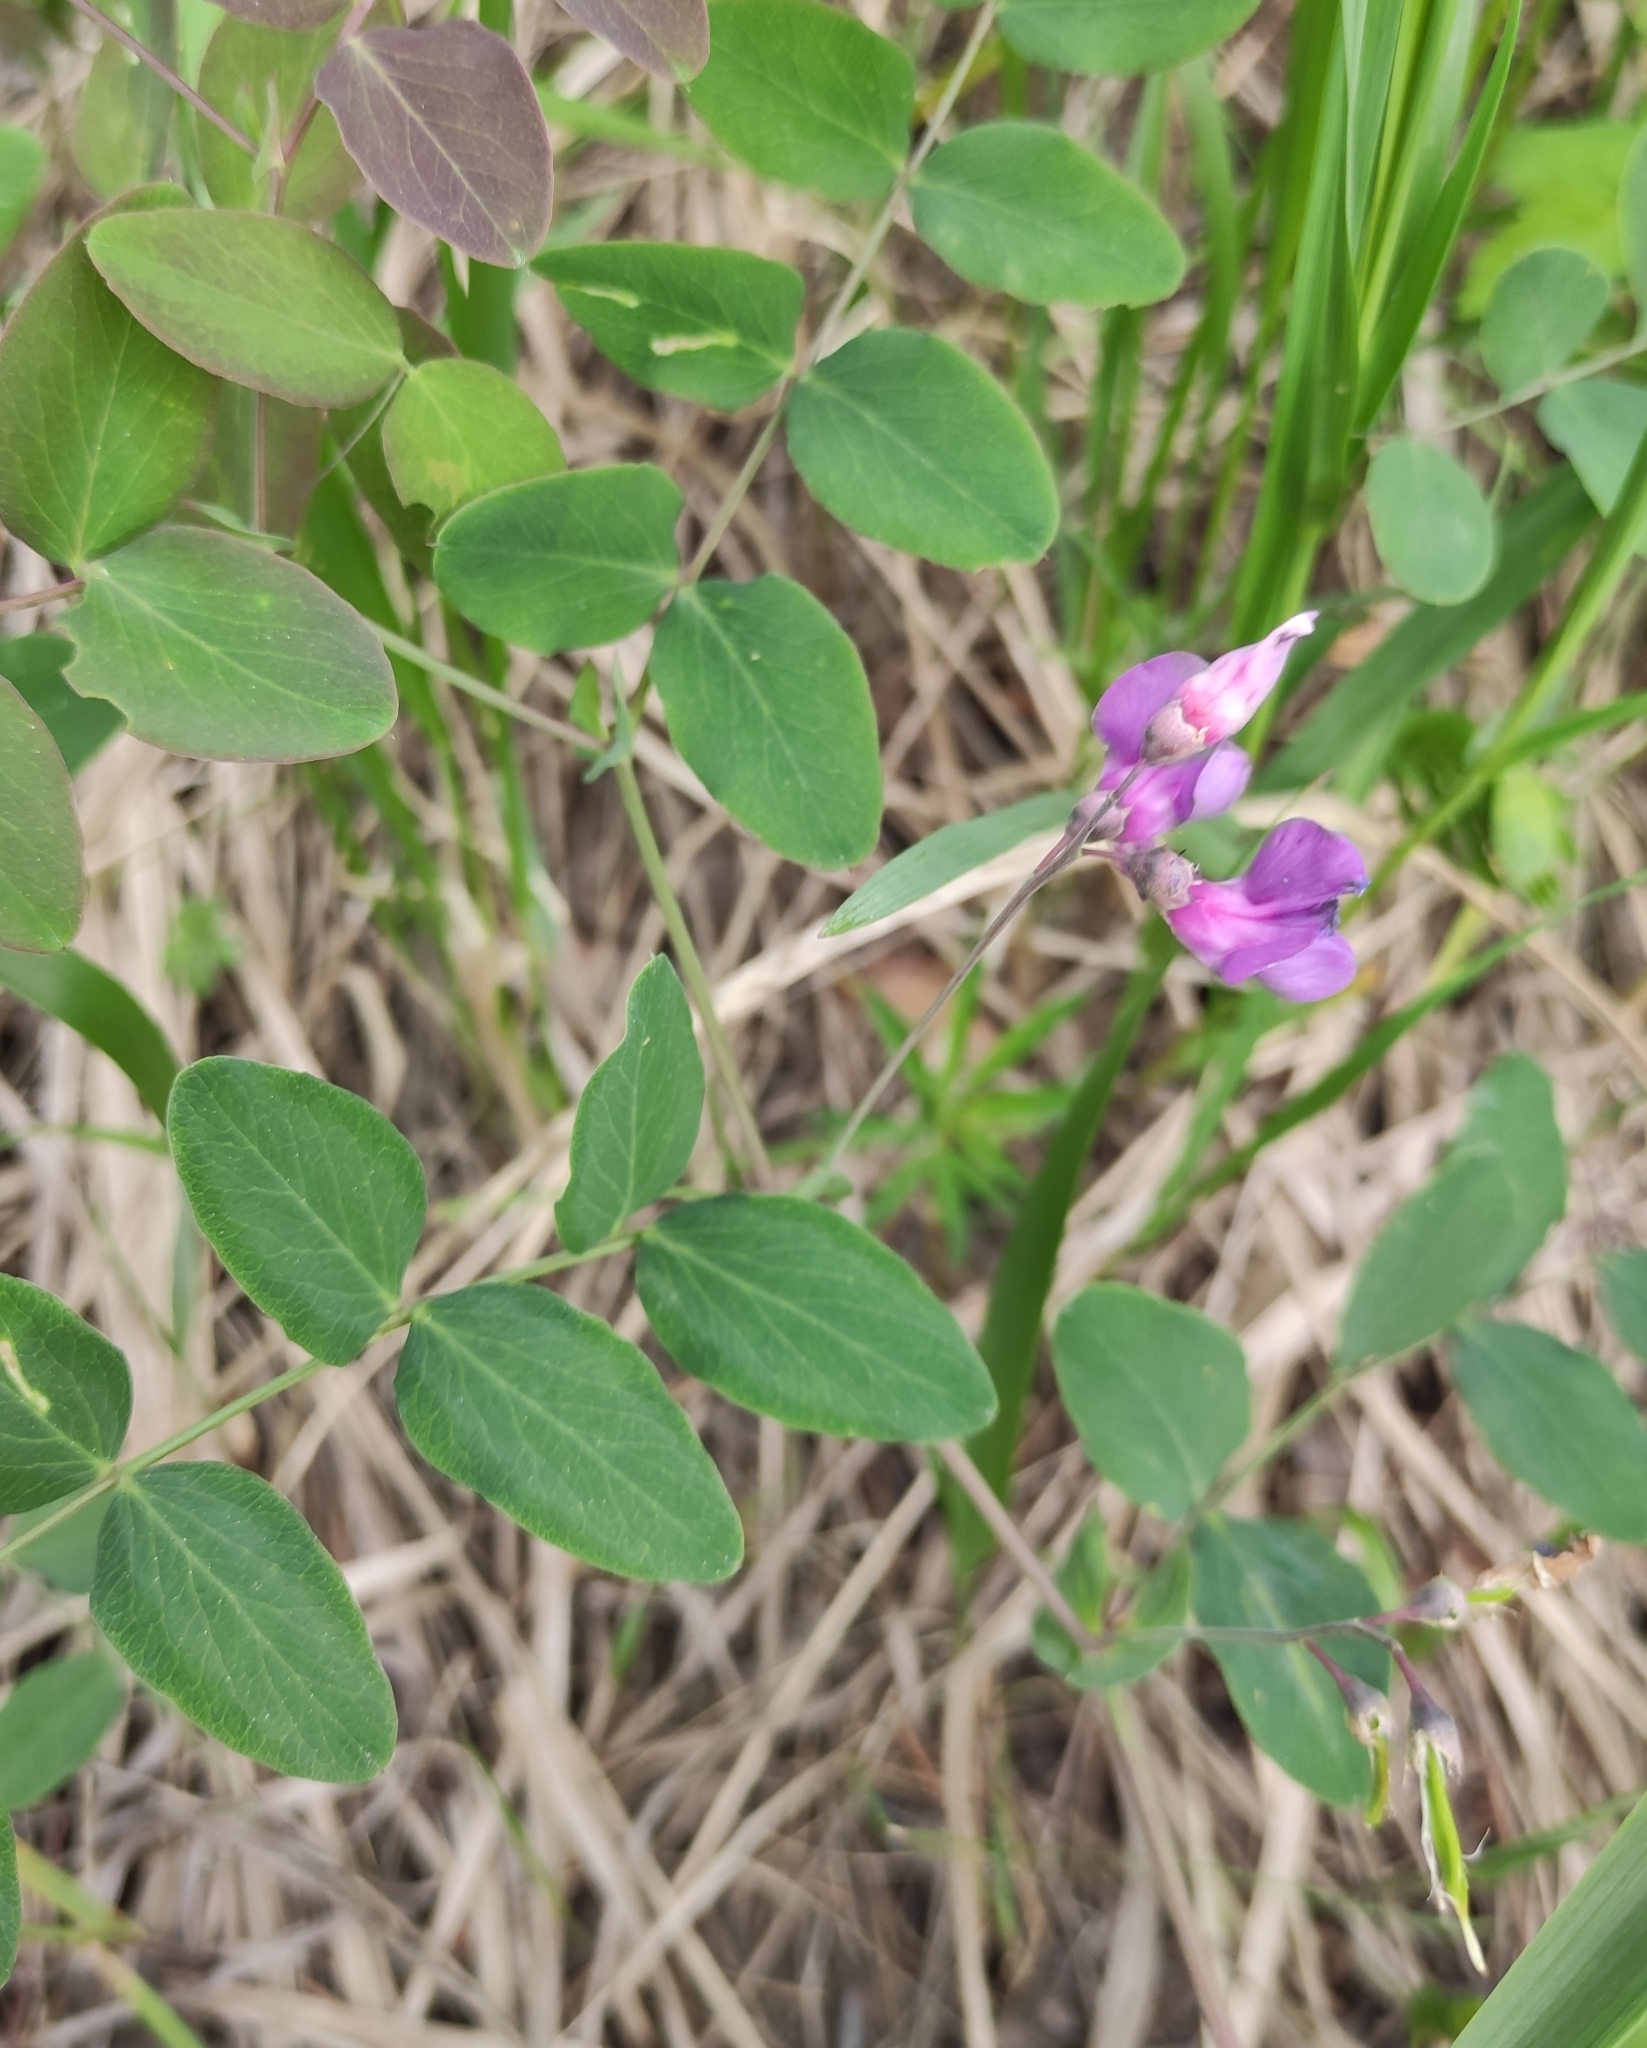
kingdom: Plantae
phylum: Tracheophyta
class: Magnoliopsida
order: Fabales
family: Fabaceae
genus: Lathyrus
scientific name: Lathyrus humilis
